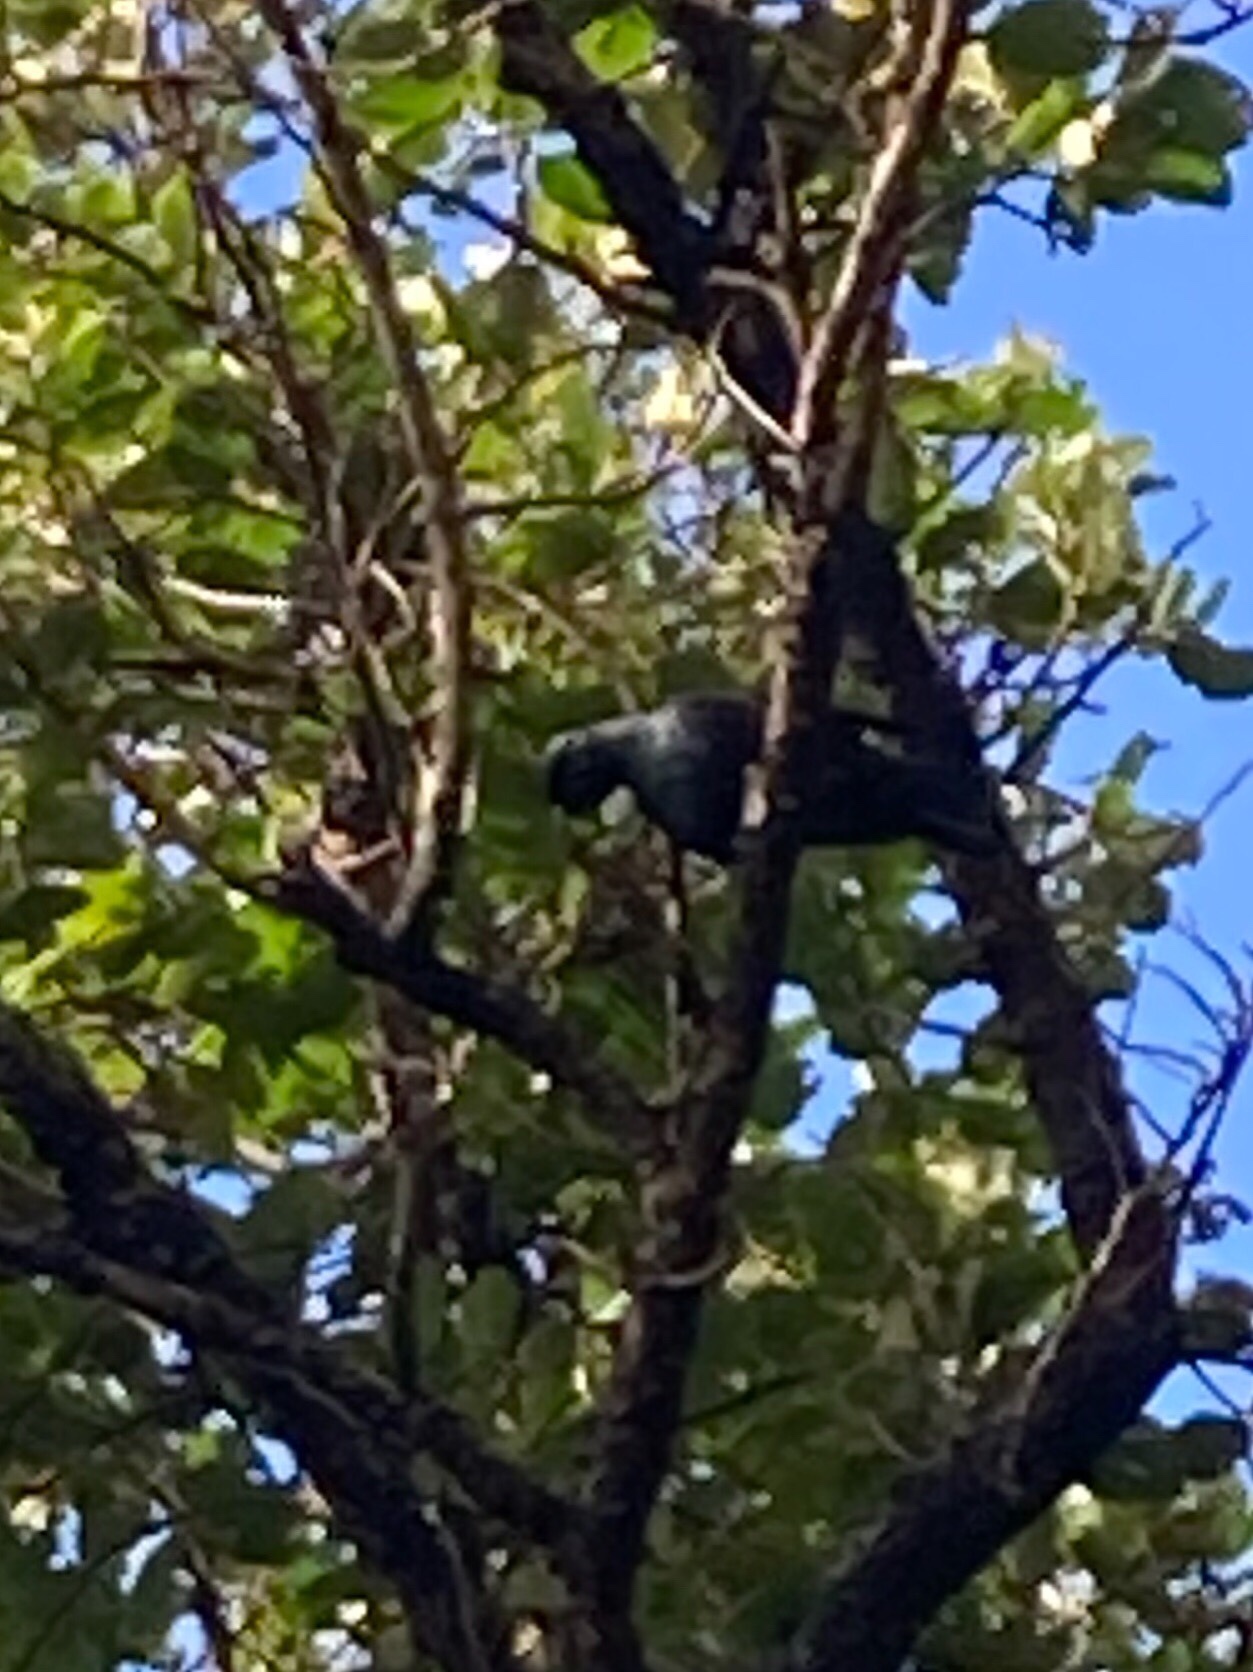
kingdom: Animalia
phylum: Chordata
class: Aves
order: Passeriformes
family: Meliphagidae
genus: Prosthemadera
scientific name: Prosthemadera novaeseelandiae
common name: Tui
